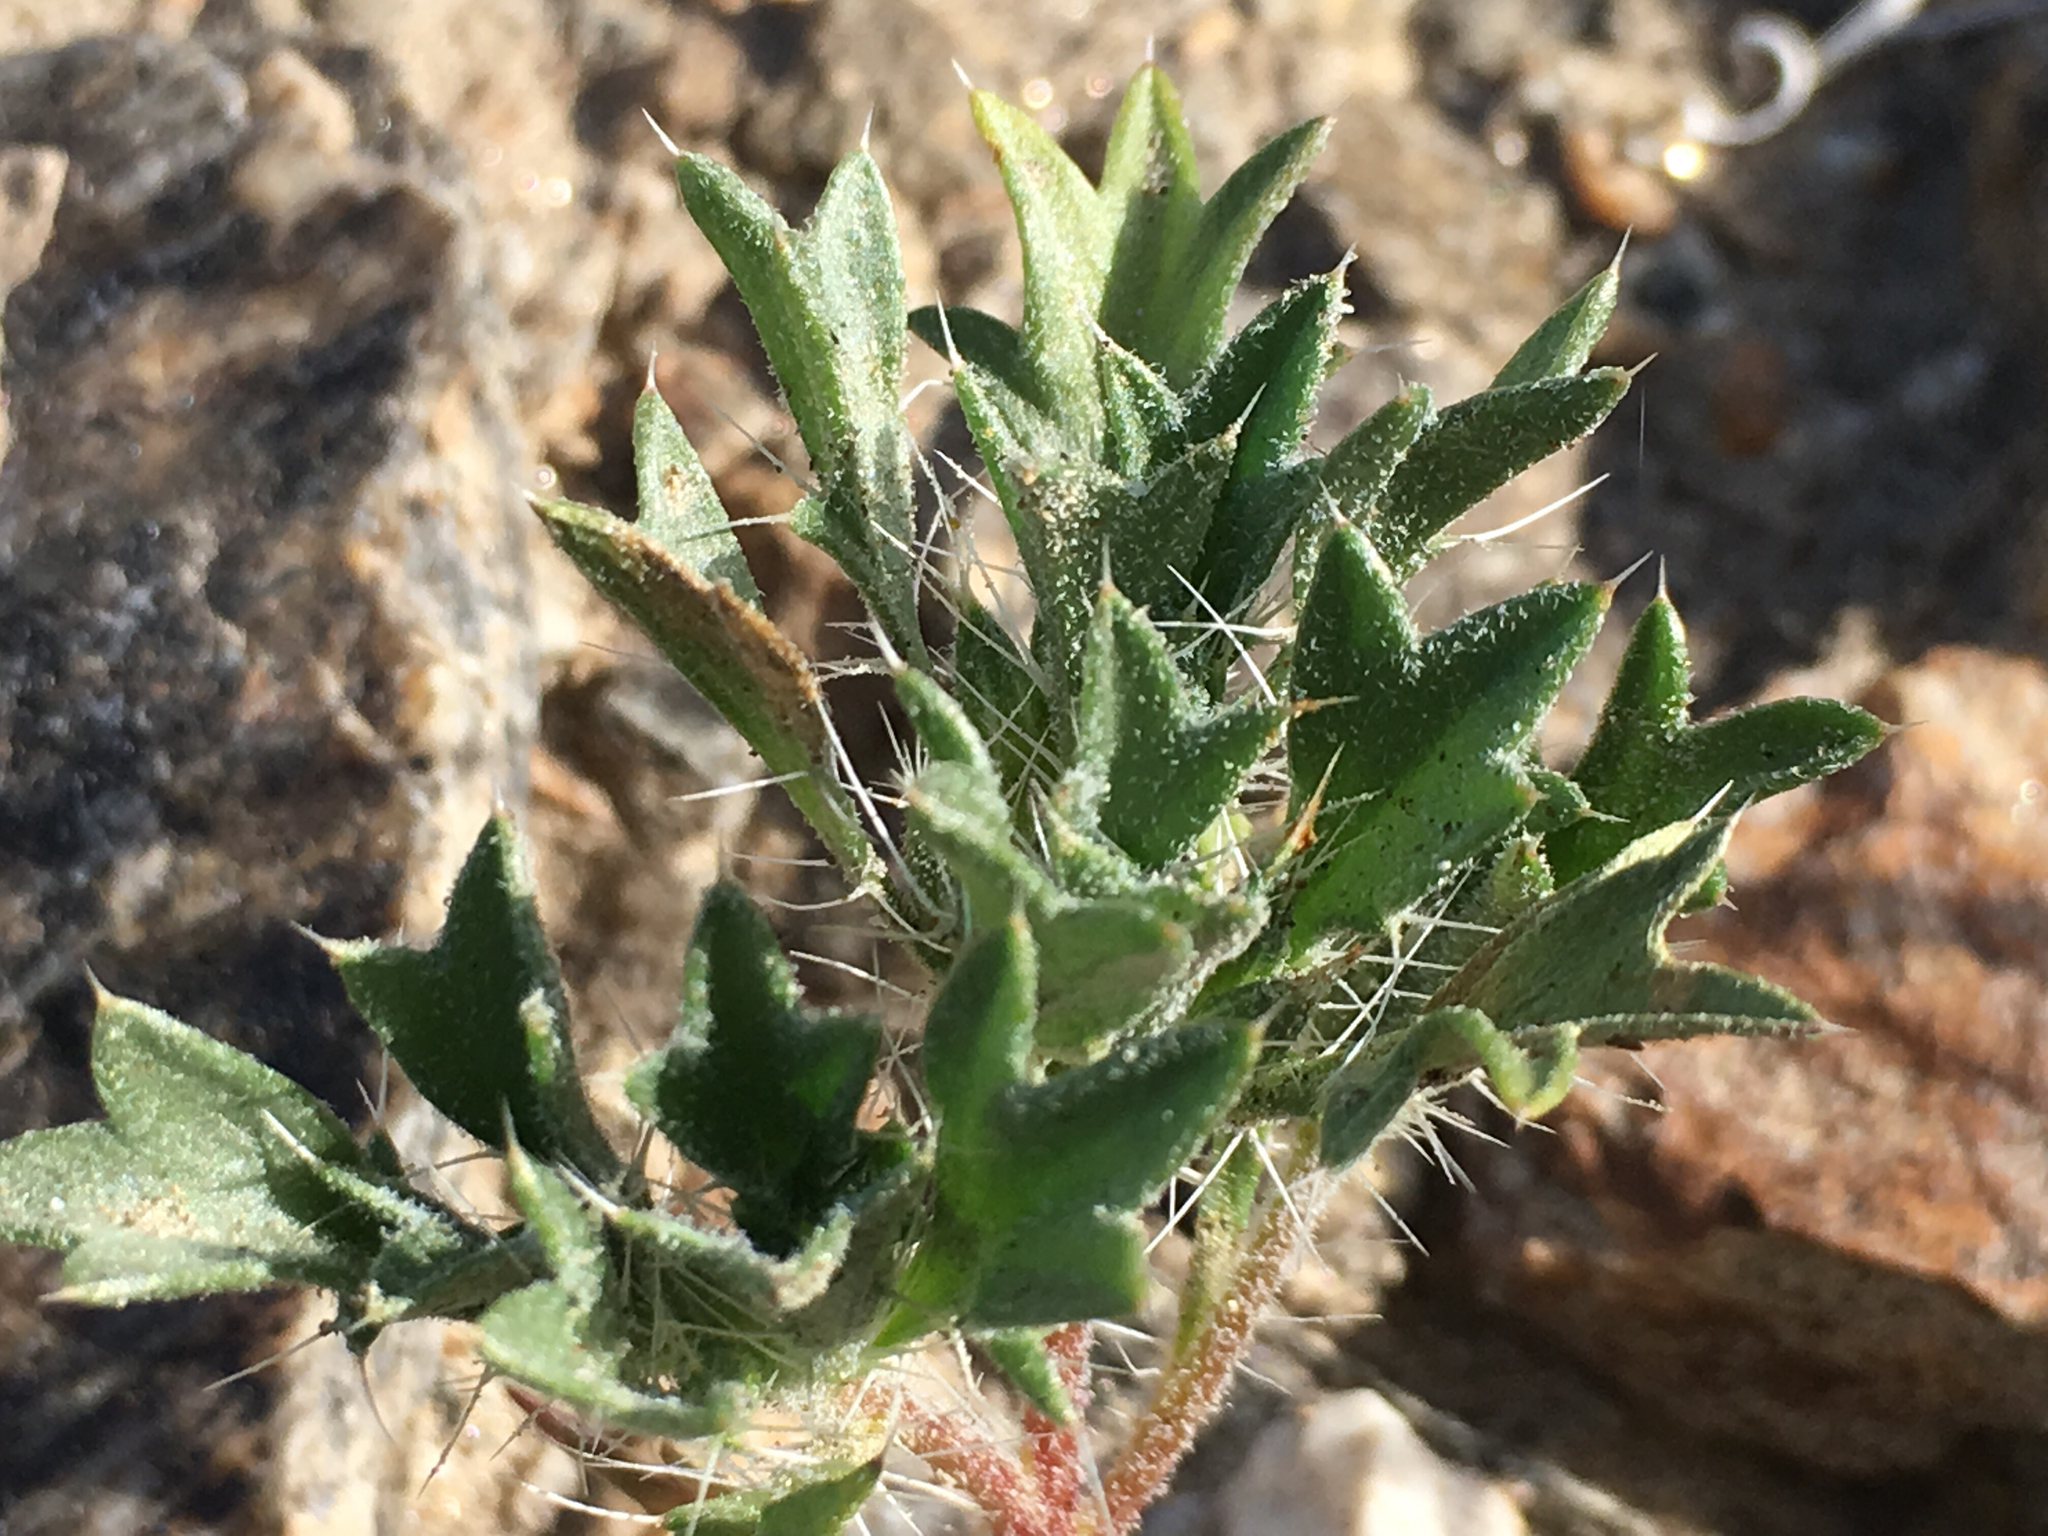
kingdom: Plantae
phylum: Tracheophyta
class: Magnoliopsida
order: Ericales
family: Polemoniaceae
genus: Langloisia
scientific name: Langloisia setosissima
